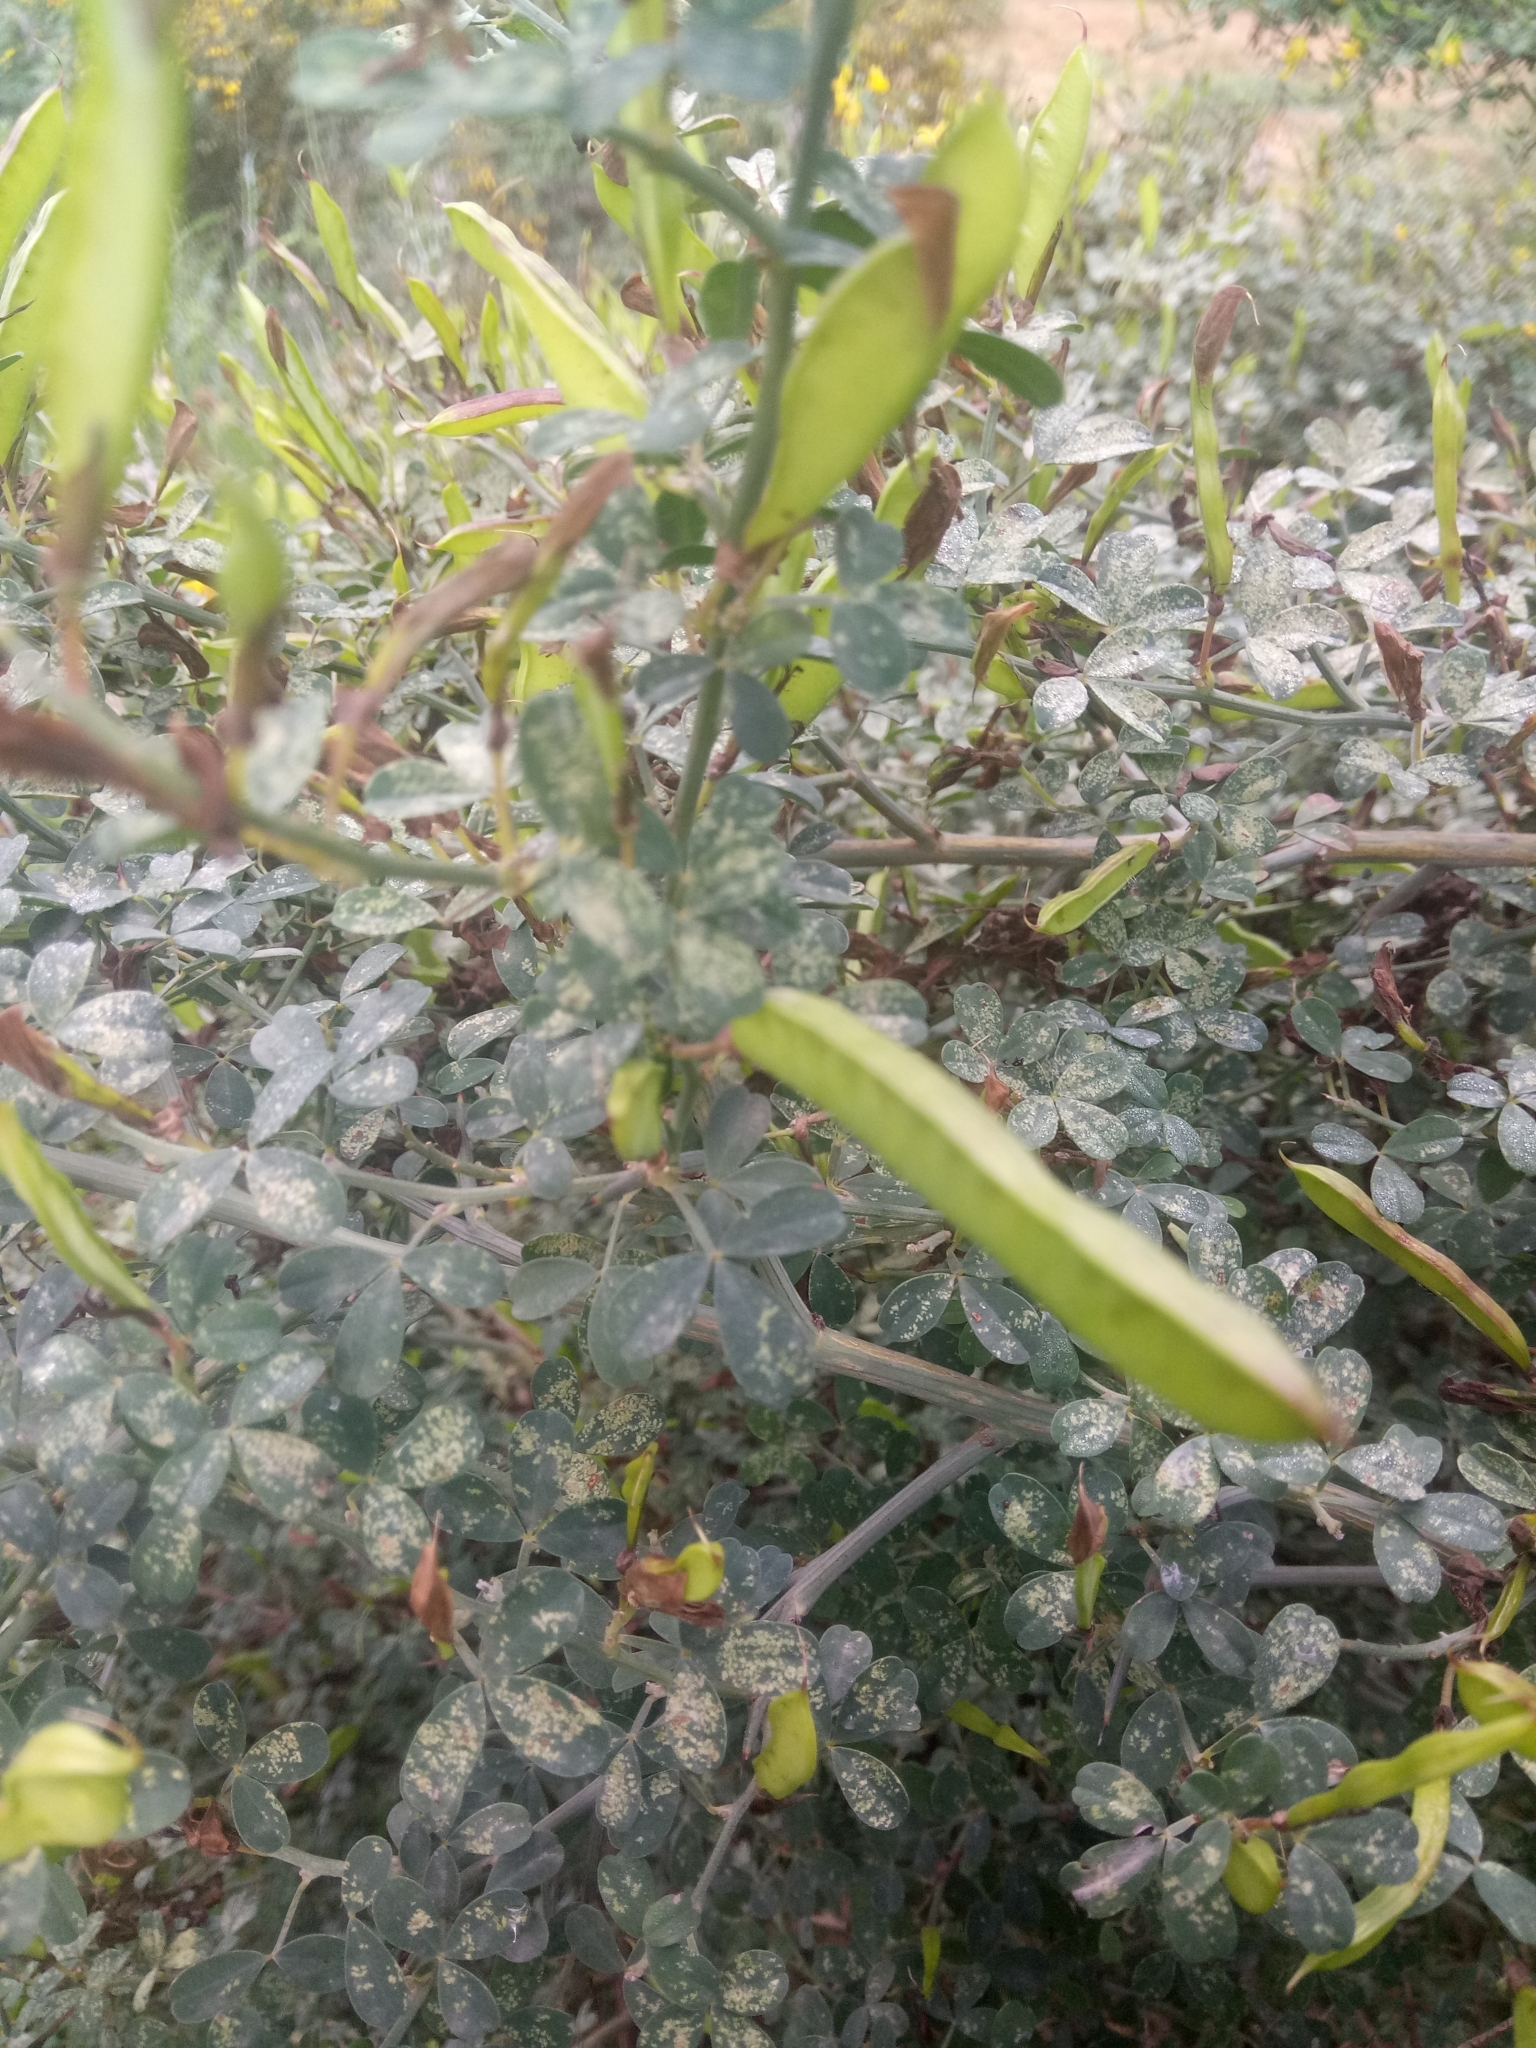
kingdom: Plantae
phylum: Tracheophyta
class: Magnoliopsida
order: Fabales
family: Fabaceae
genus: Calicotome
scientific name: Calicotome spinosa
